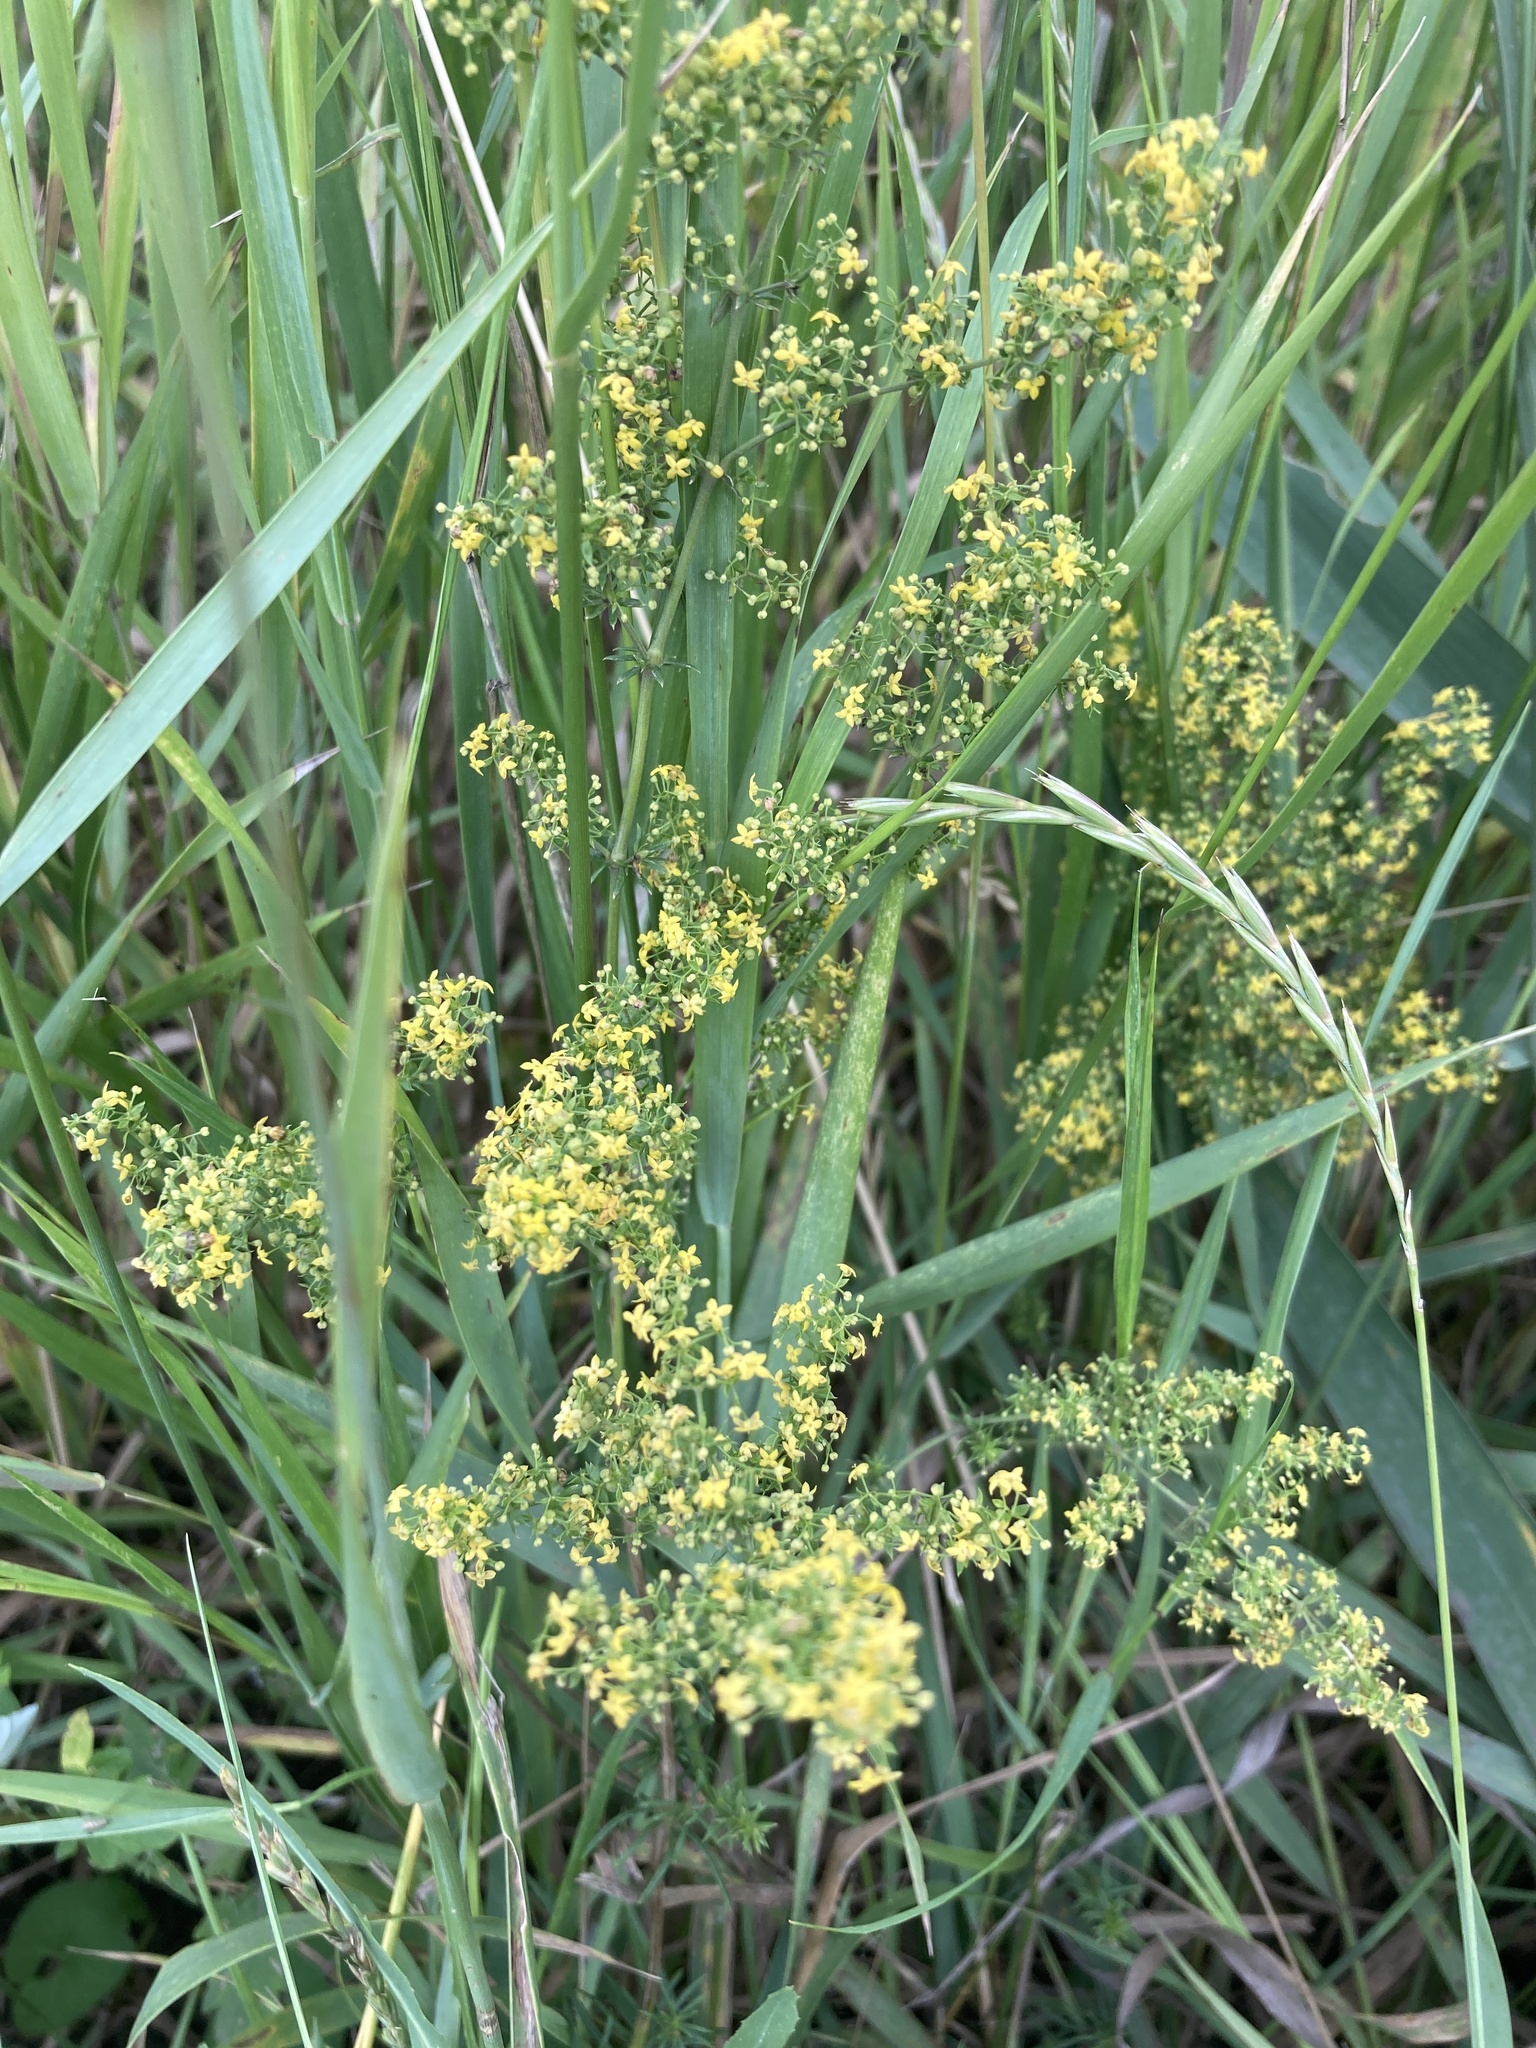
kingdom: Plantae
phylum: Tracheophyta
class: Magnoliopsida
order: Gentianales
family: Rubiaceae
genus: Galium
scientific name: Galium verum
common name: Lady's bedstraw
